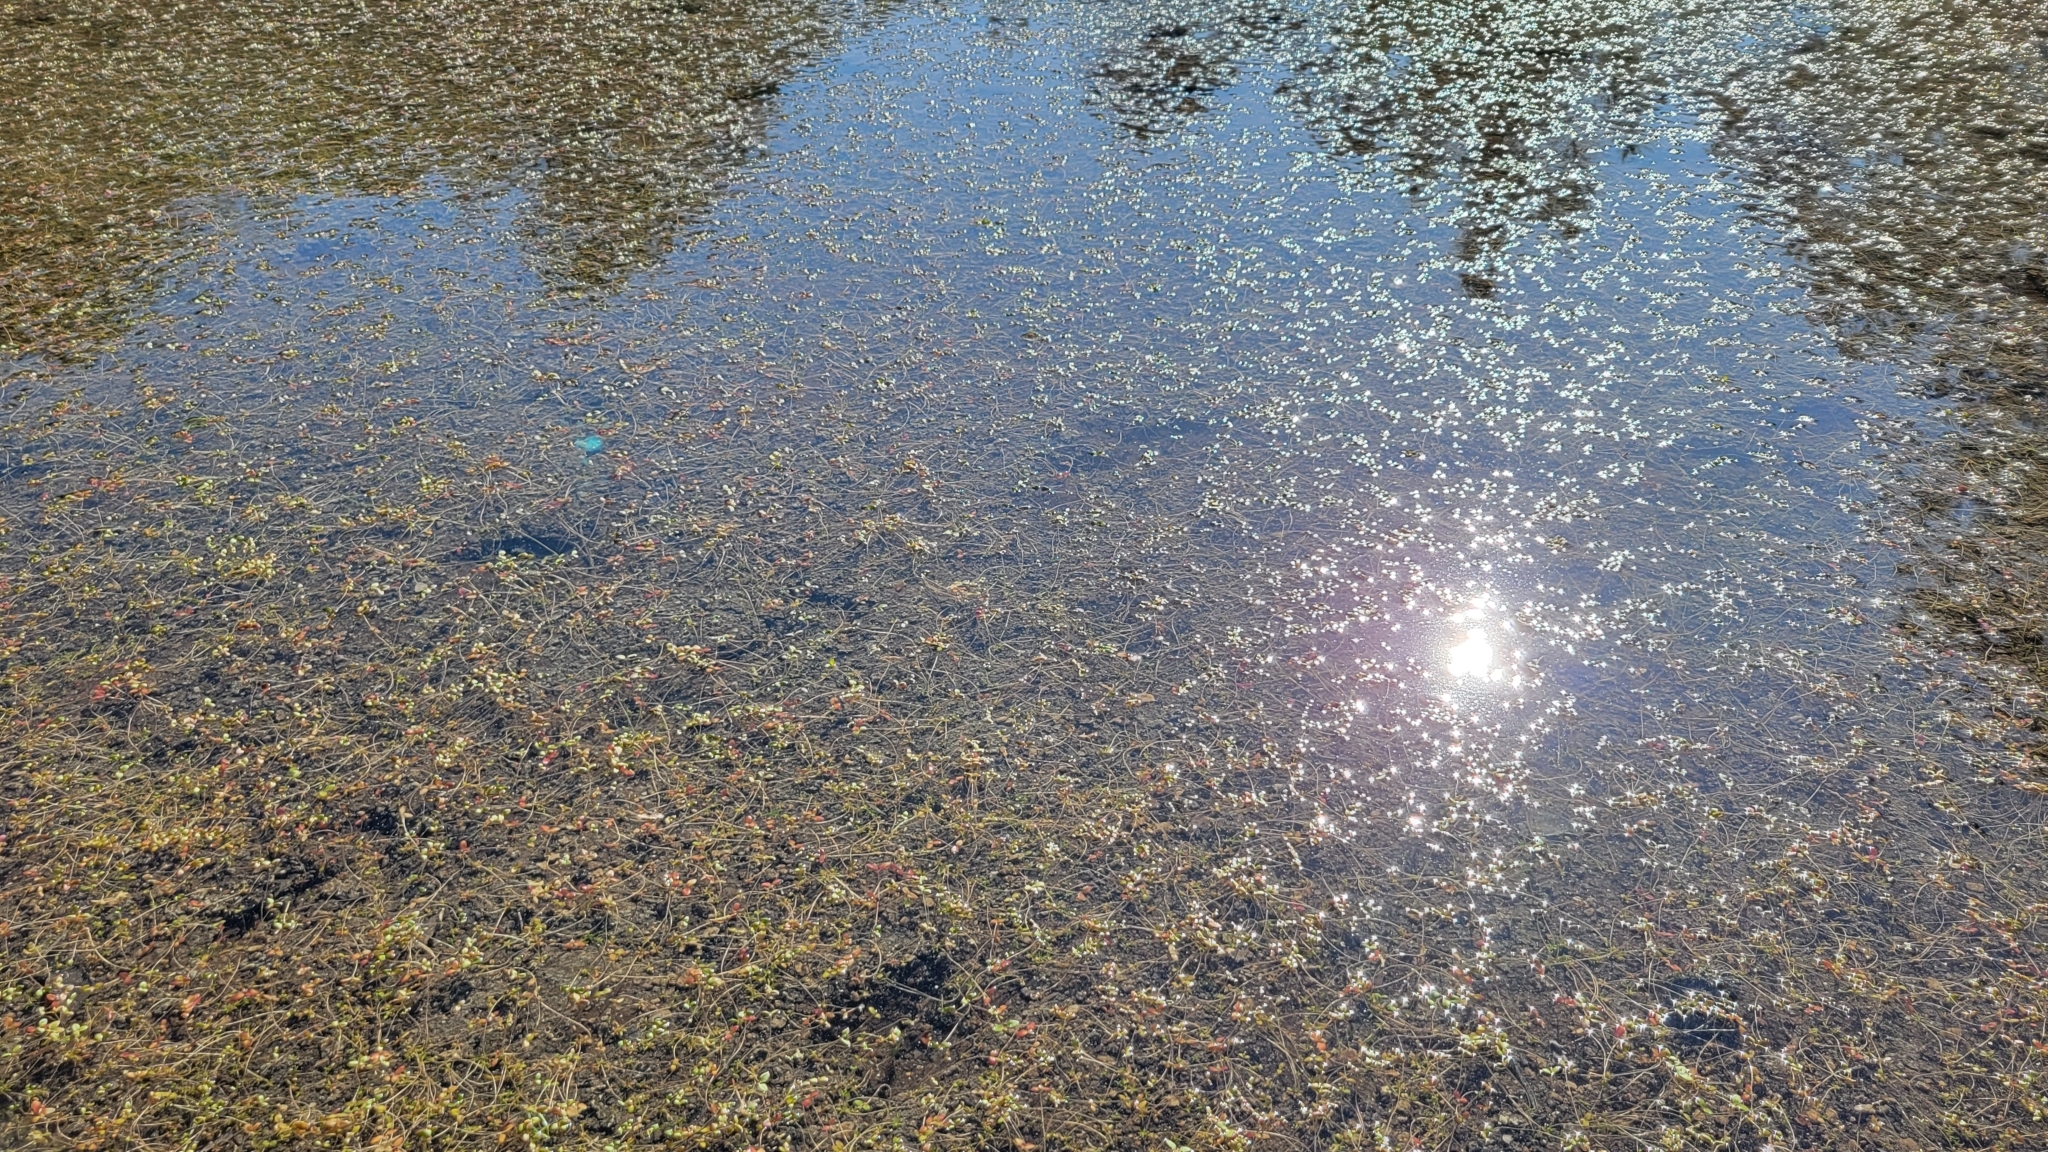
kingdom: Plantae
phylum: Tracheophyta
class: Magnoliopsida
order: Lamiales
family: Plantaginaceae
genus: Gratiola
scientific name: Gratiola amphiantha
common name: Little amphianthus
